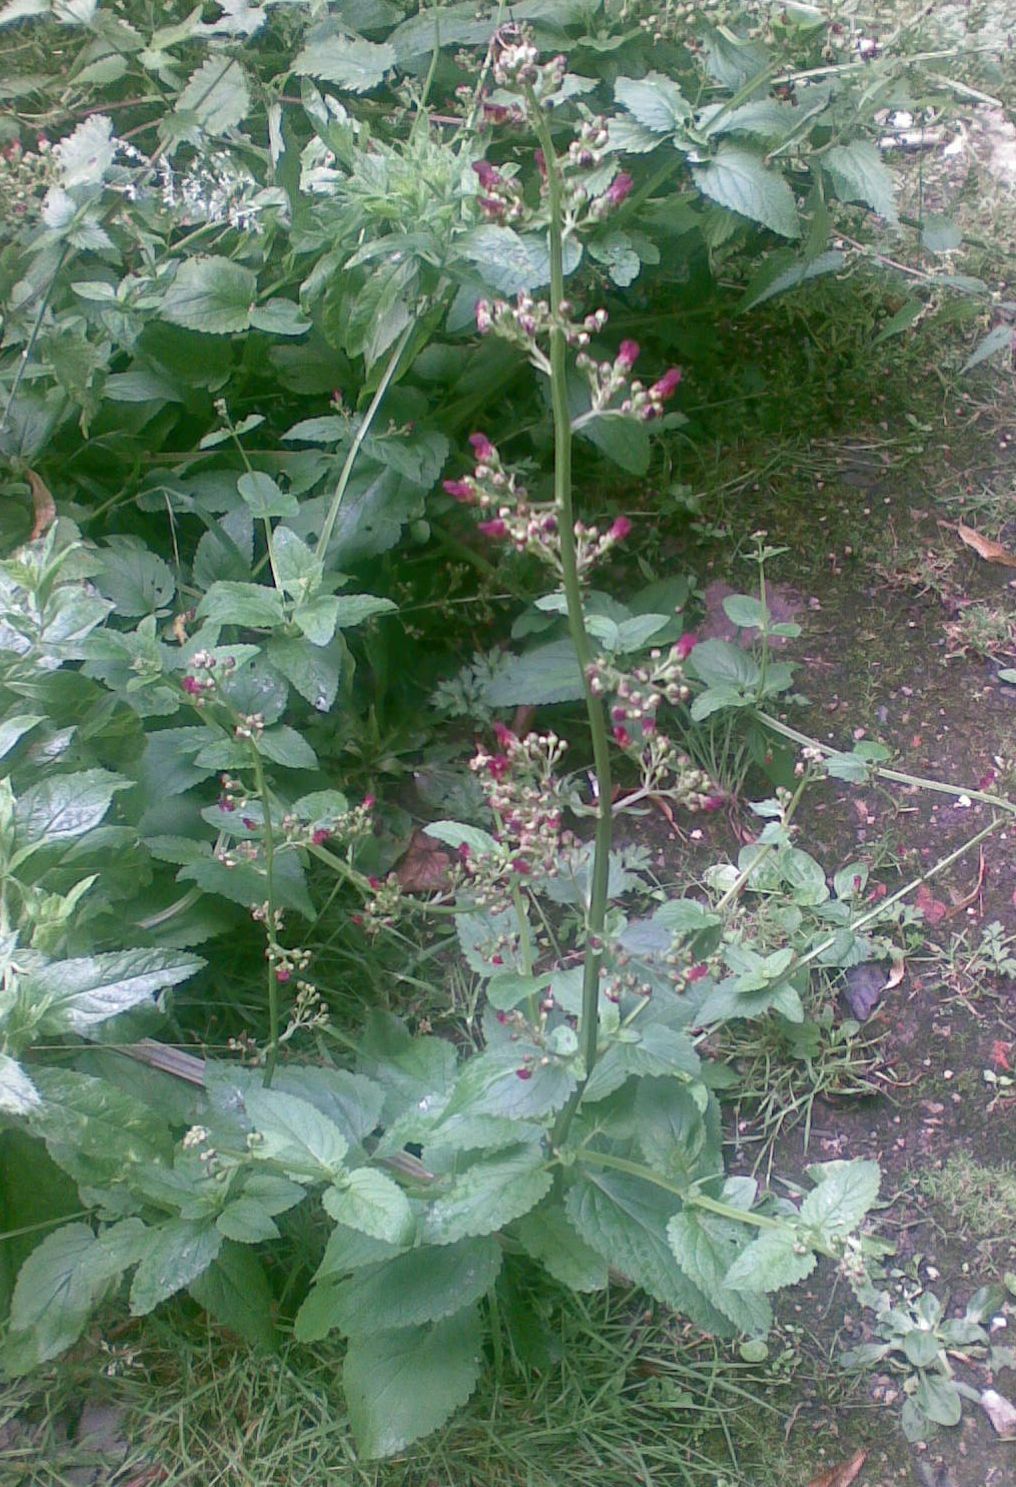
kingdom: Plantae
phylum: Tracheophyta
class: Magnoliopsida
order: Lamiales
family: Scrophulariaceae
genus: Scrophularia
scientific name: Scrophularia auriculata
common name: Water betony
